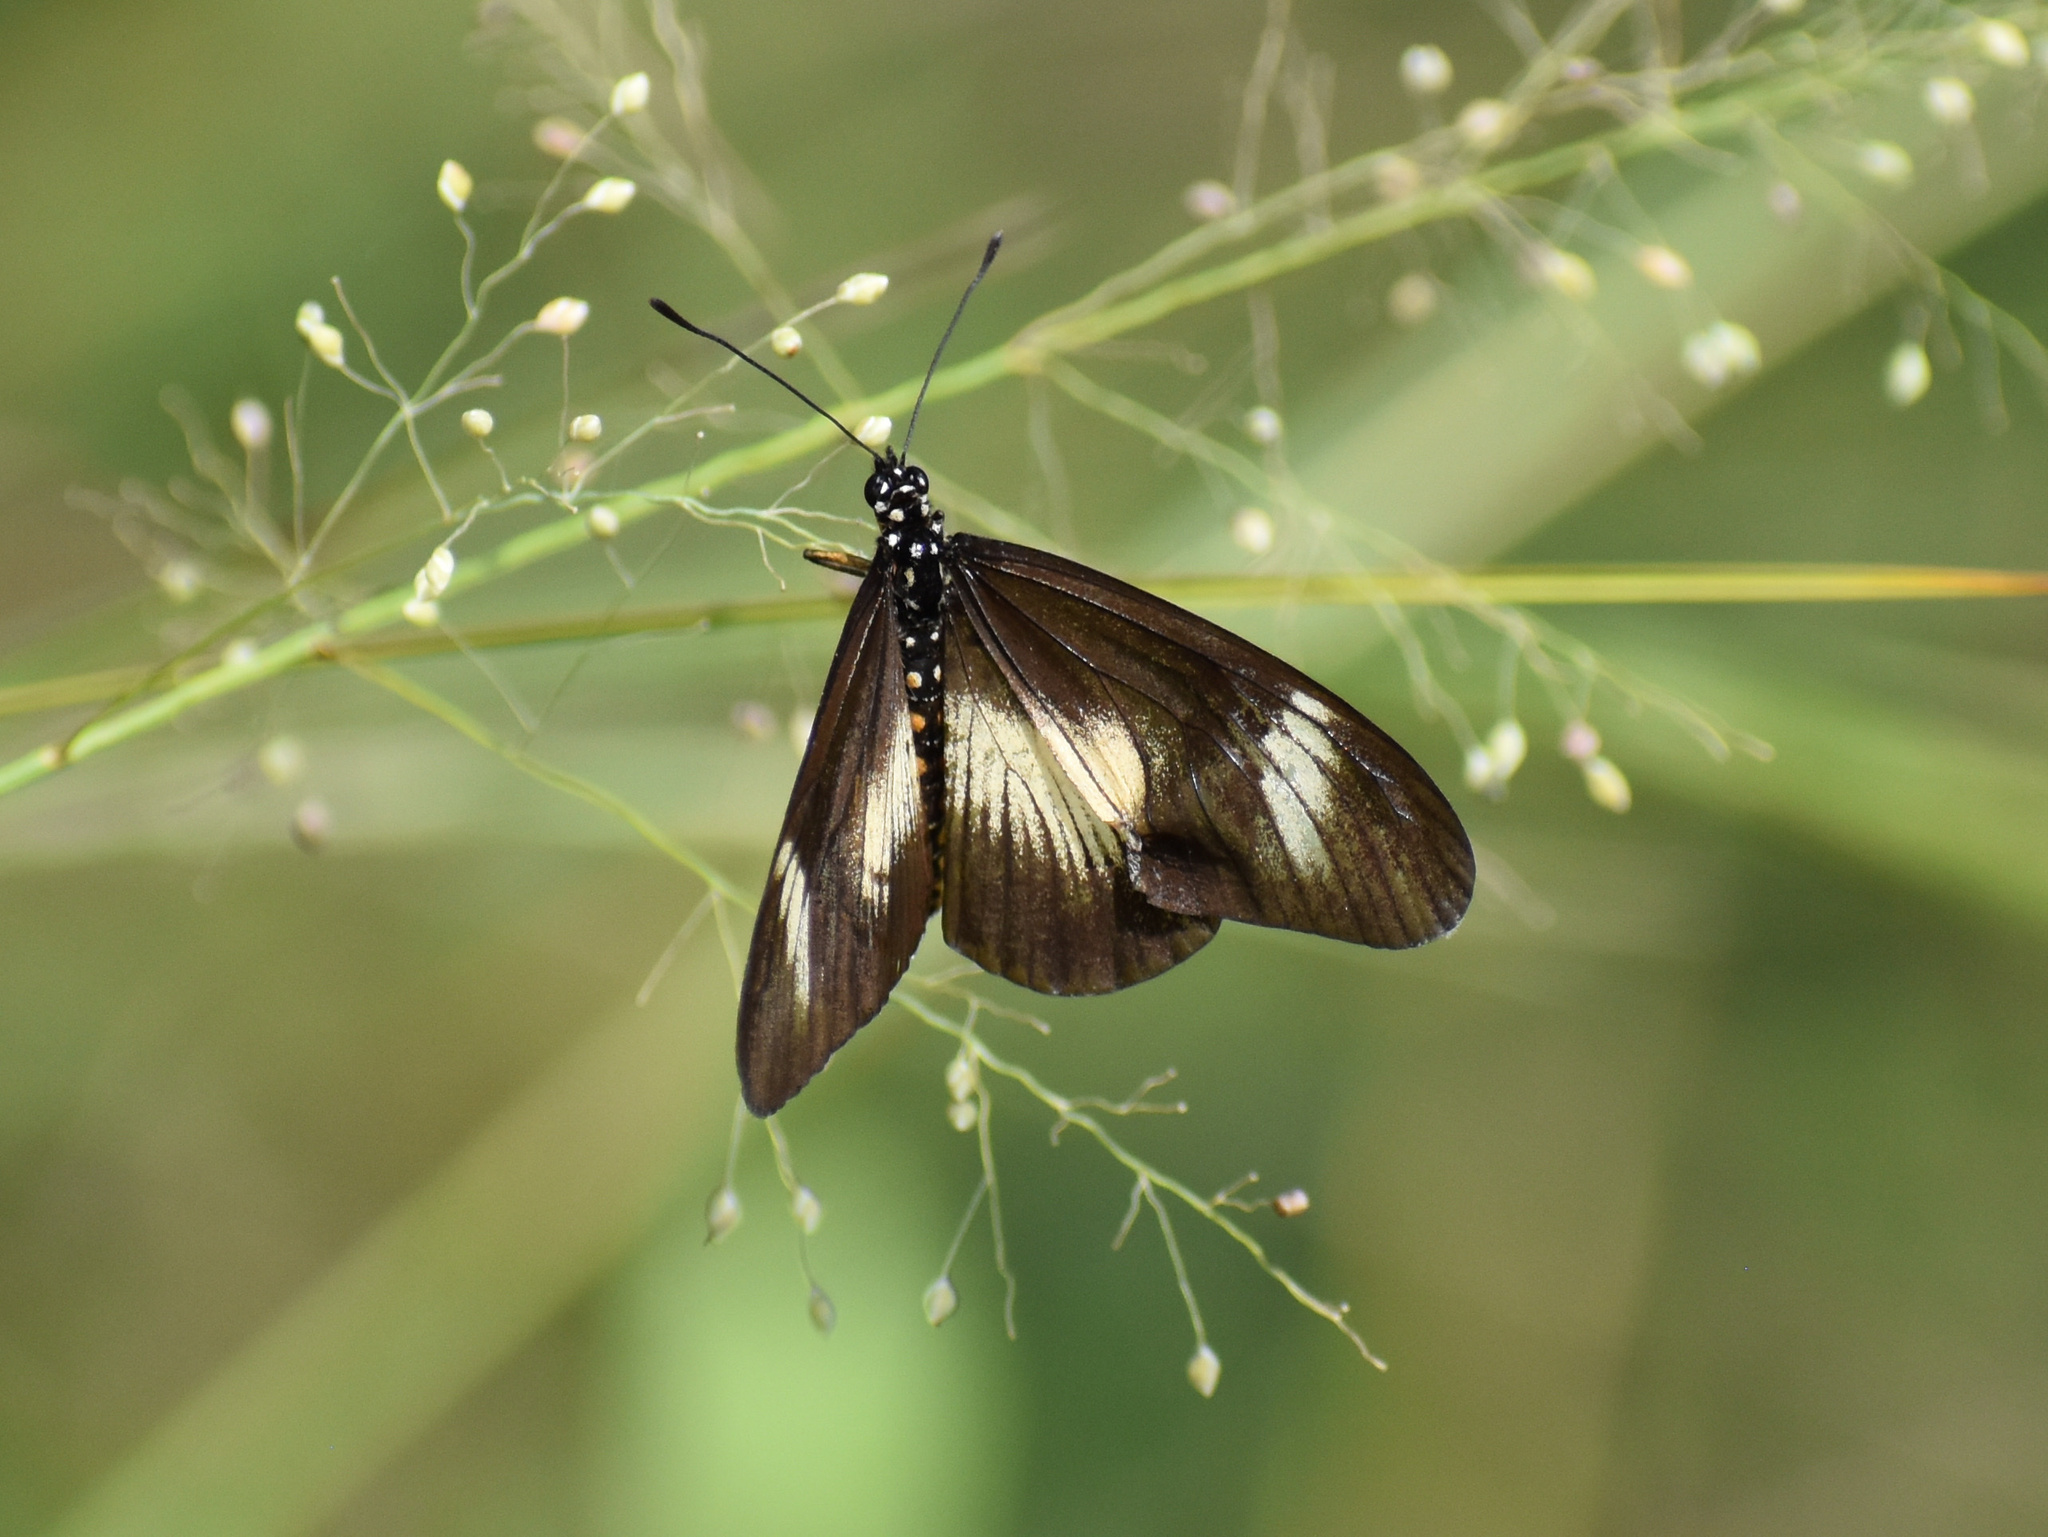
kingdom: Animalia
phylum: Arthropoda
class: Insecta
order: Lepidoptera
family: Nymphalidae
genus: Acraea
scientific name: Acraea esebria
